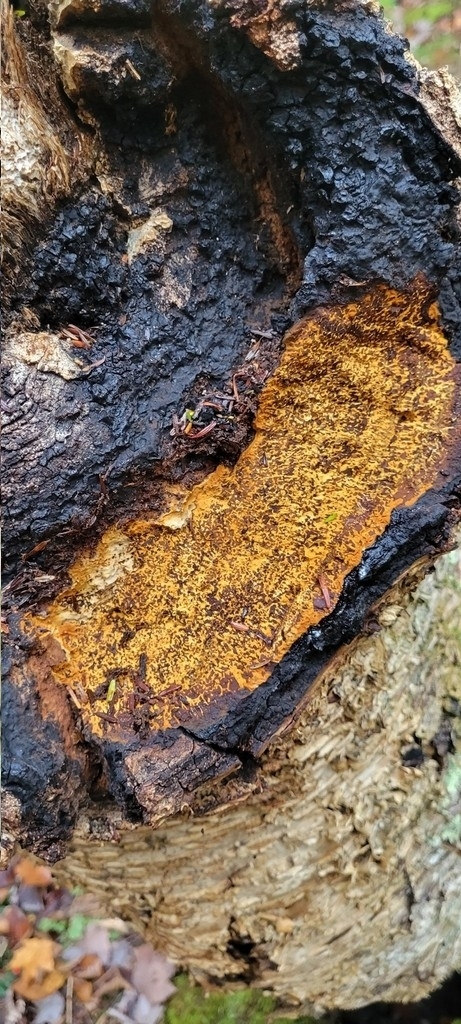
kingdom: Fungi
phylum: Basidiomycota
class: Agaricomycetes
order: Hymenochaetales
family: Hymenochaetaceae
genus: Inonotus
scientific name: Inonotus obliquus
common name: Chaga
